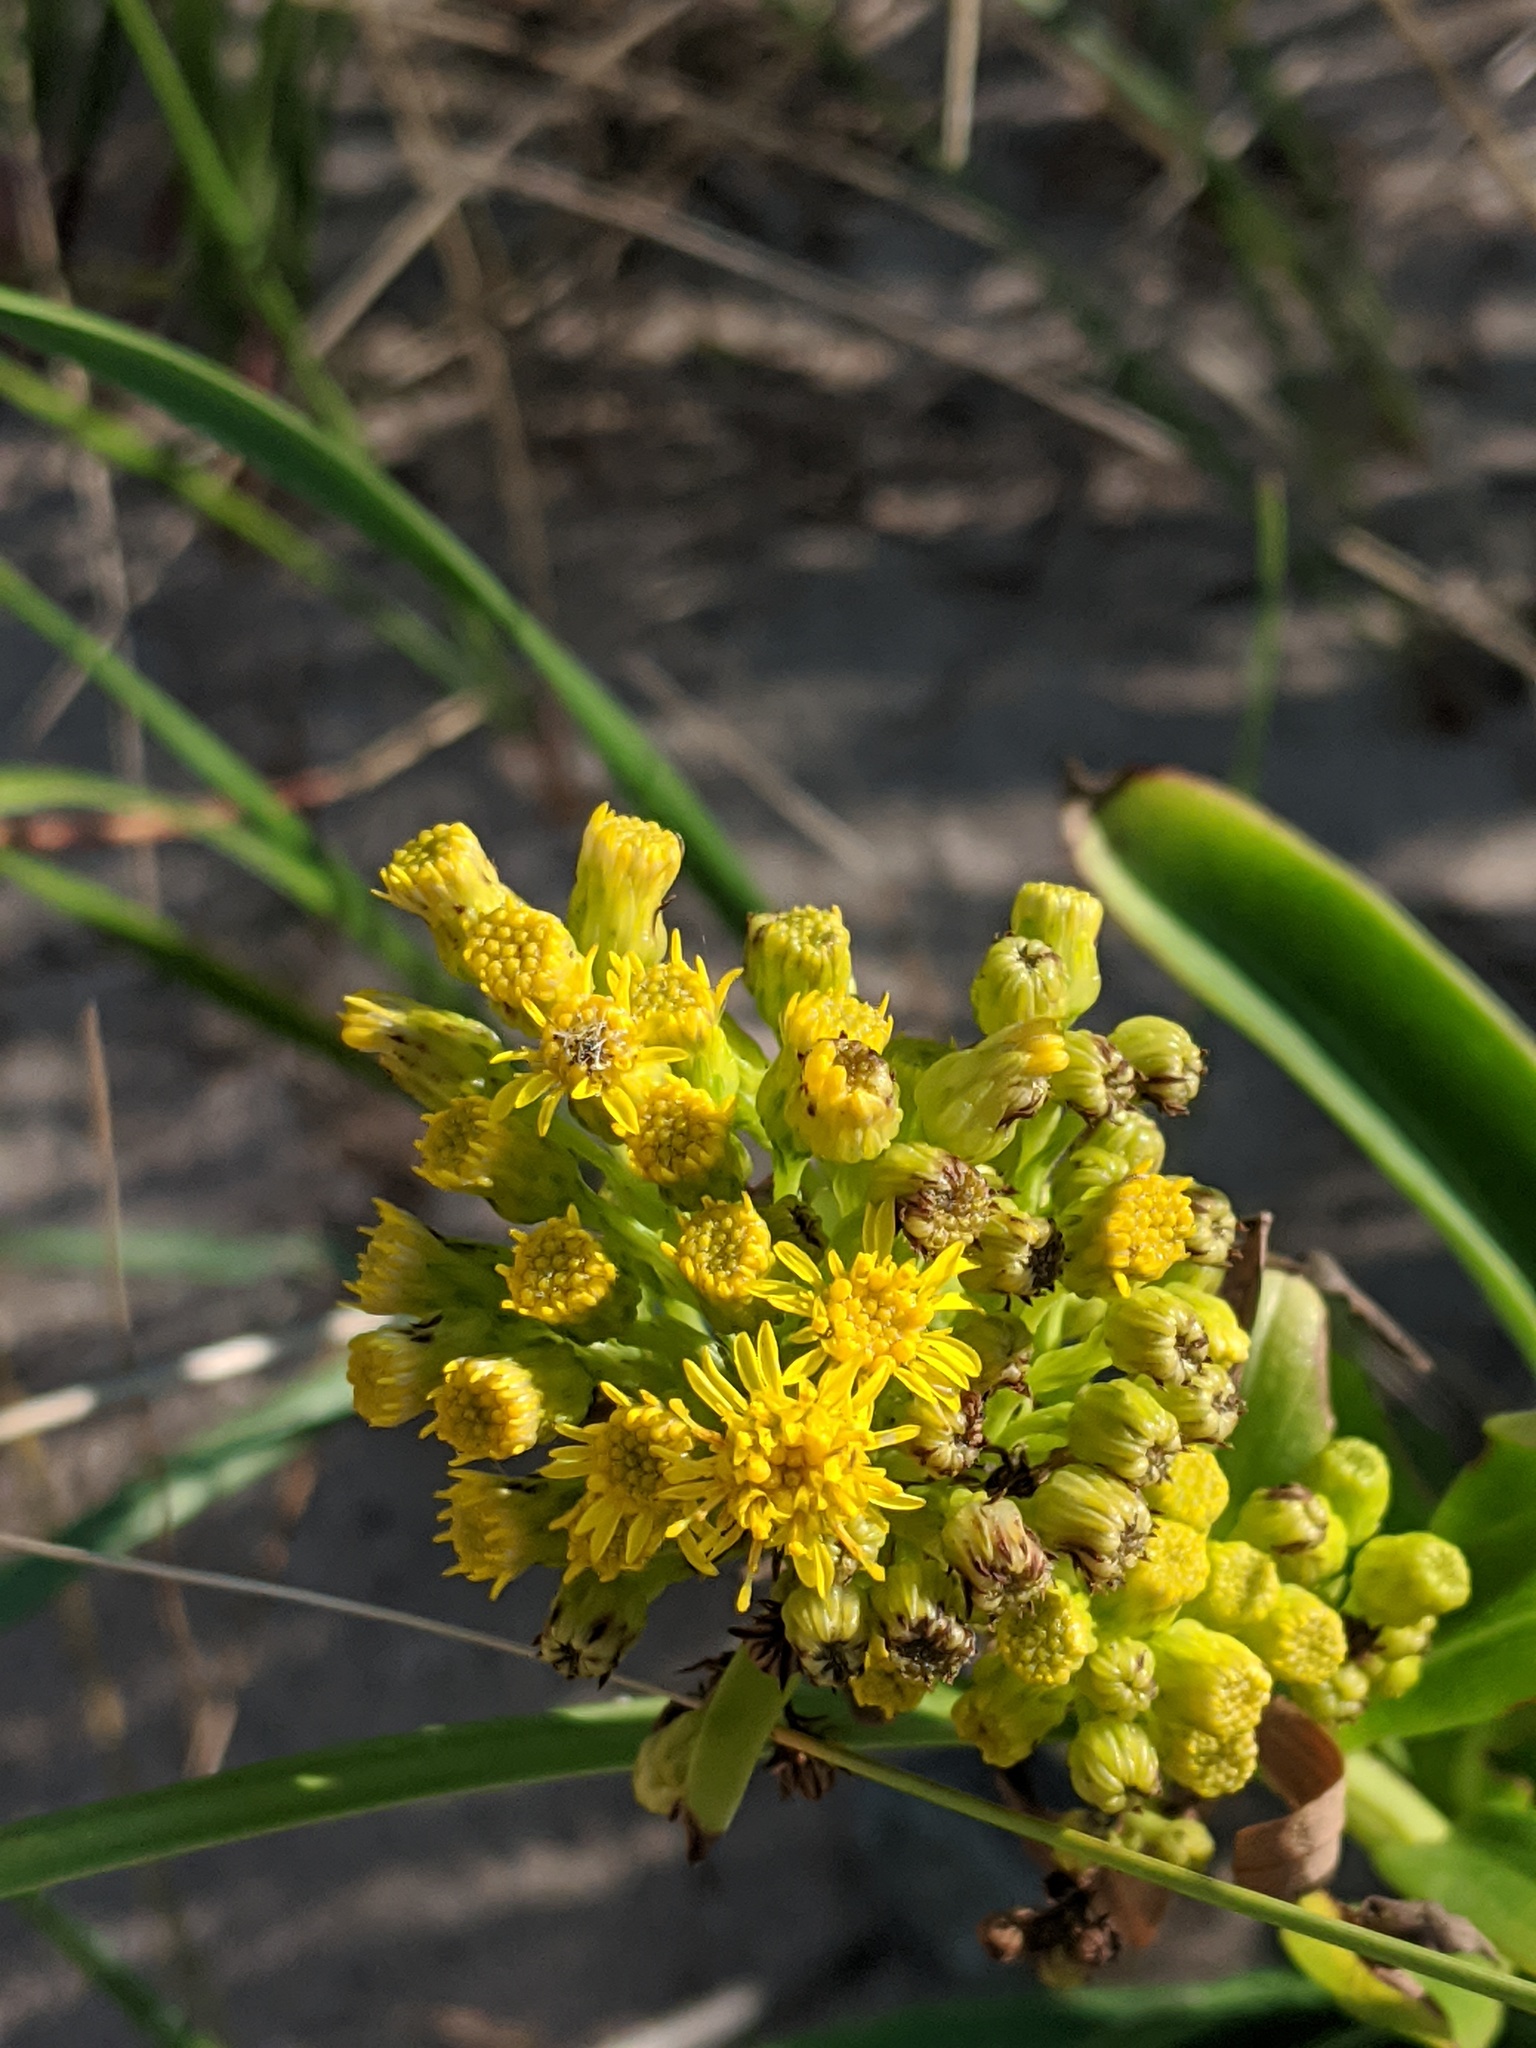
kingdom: Plantae
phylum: Tracheophyta
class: Magnoliopsida
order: Asterales
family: Asteraceae
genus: Solidago
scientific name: Solidago sempervirens
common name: Salt-marsh goldenrod
